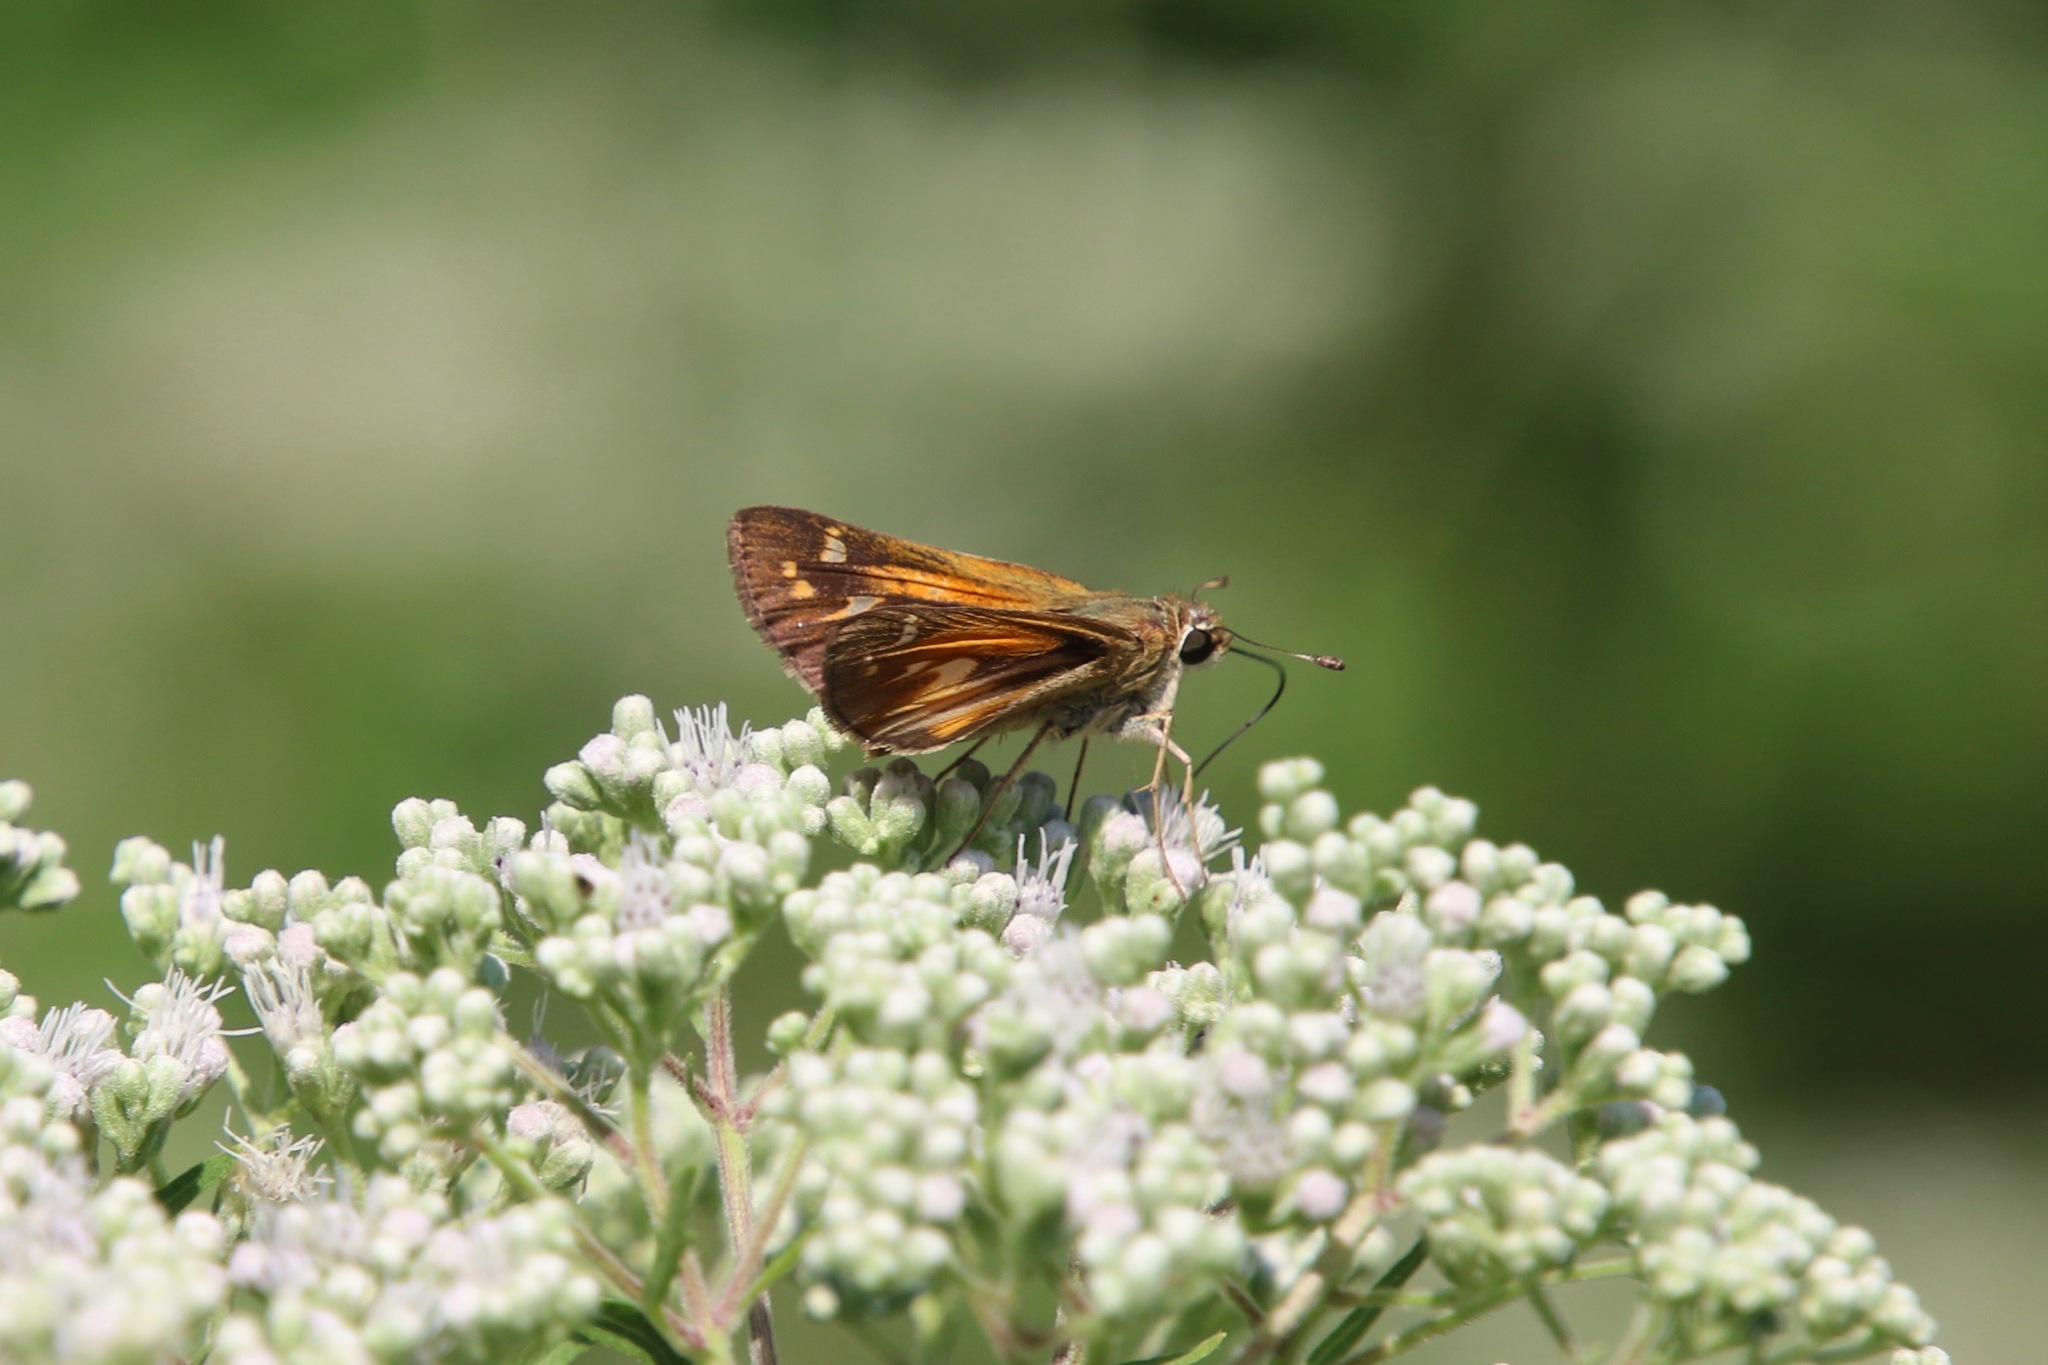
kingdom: Animalia
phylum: Arthropoda
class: Insecta
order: Lepidoptera
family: Hesperiidae
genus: Atalopedes
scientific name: Atalopedes
